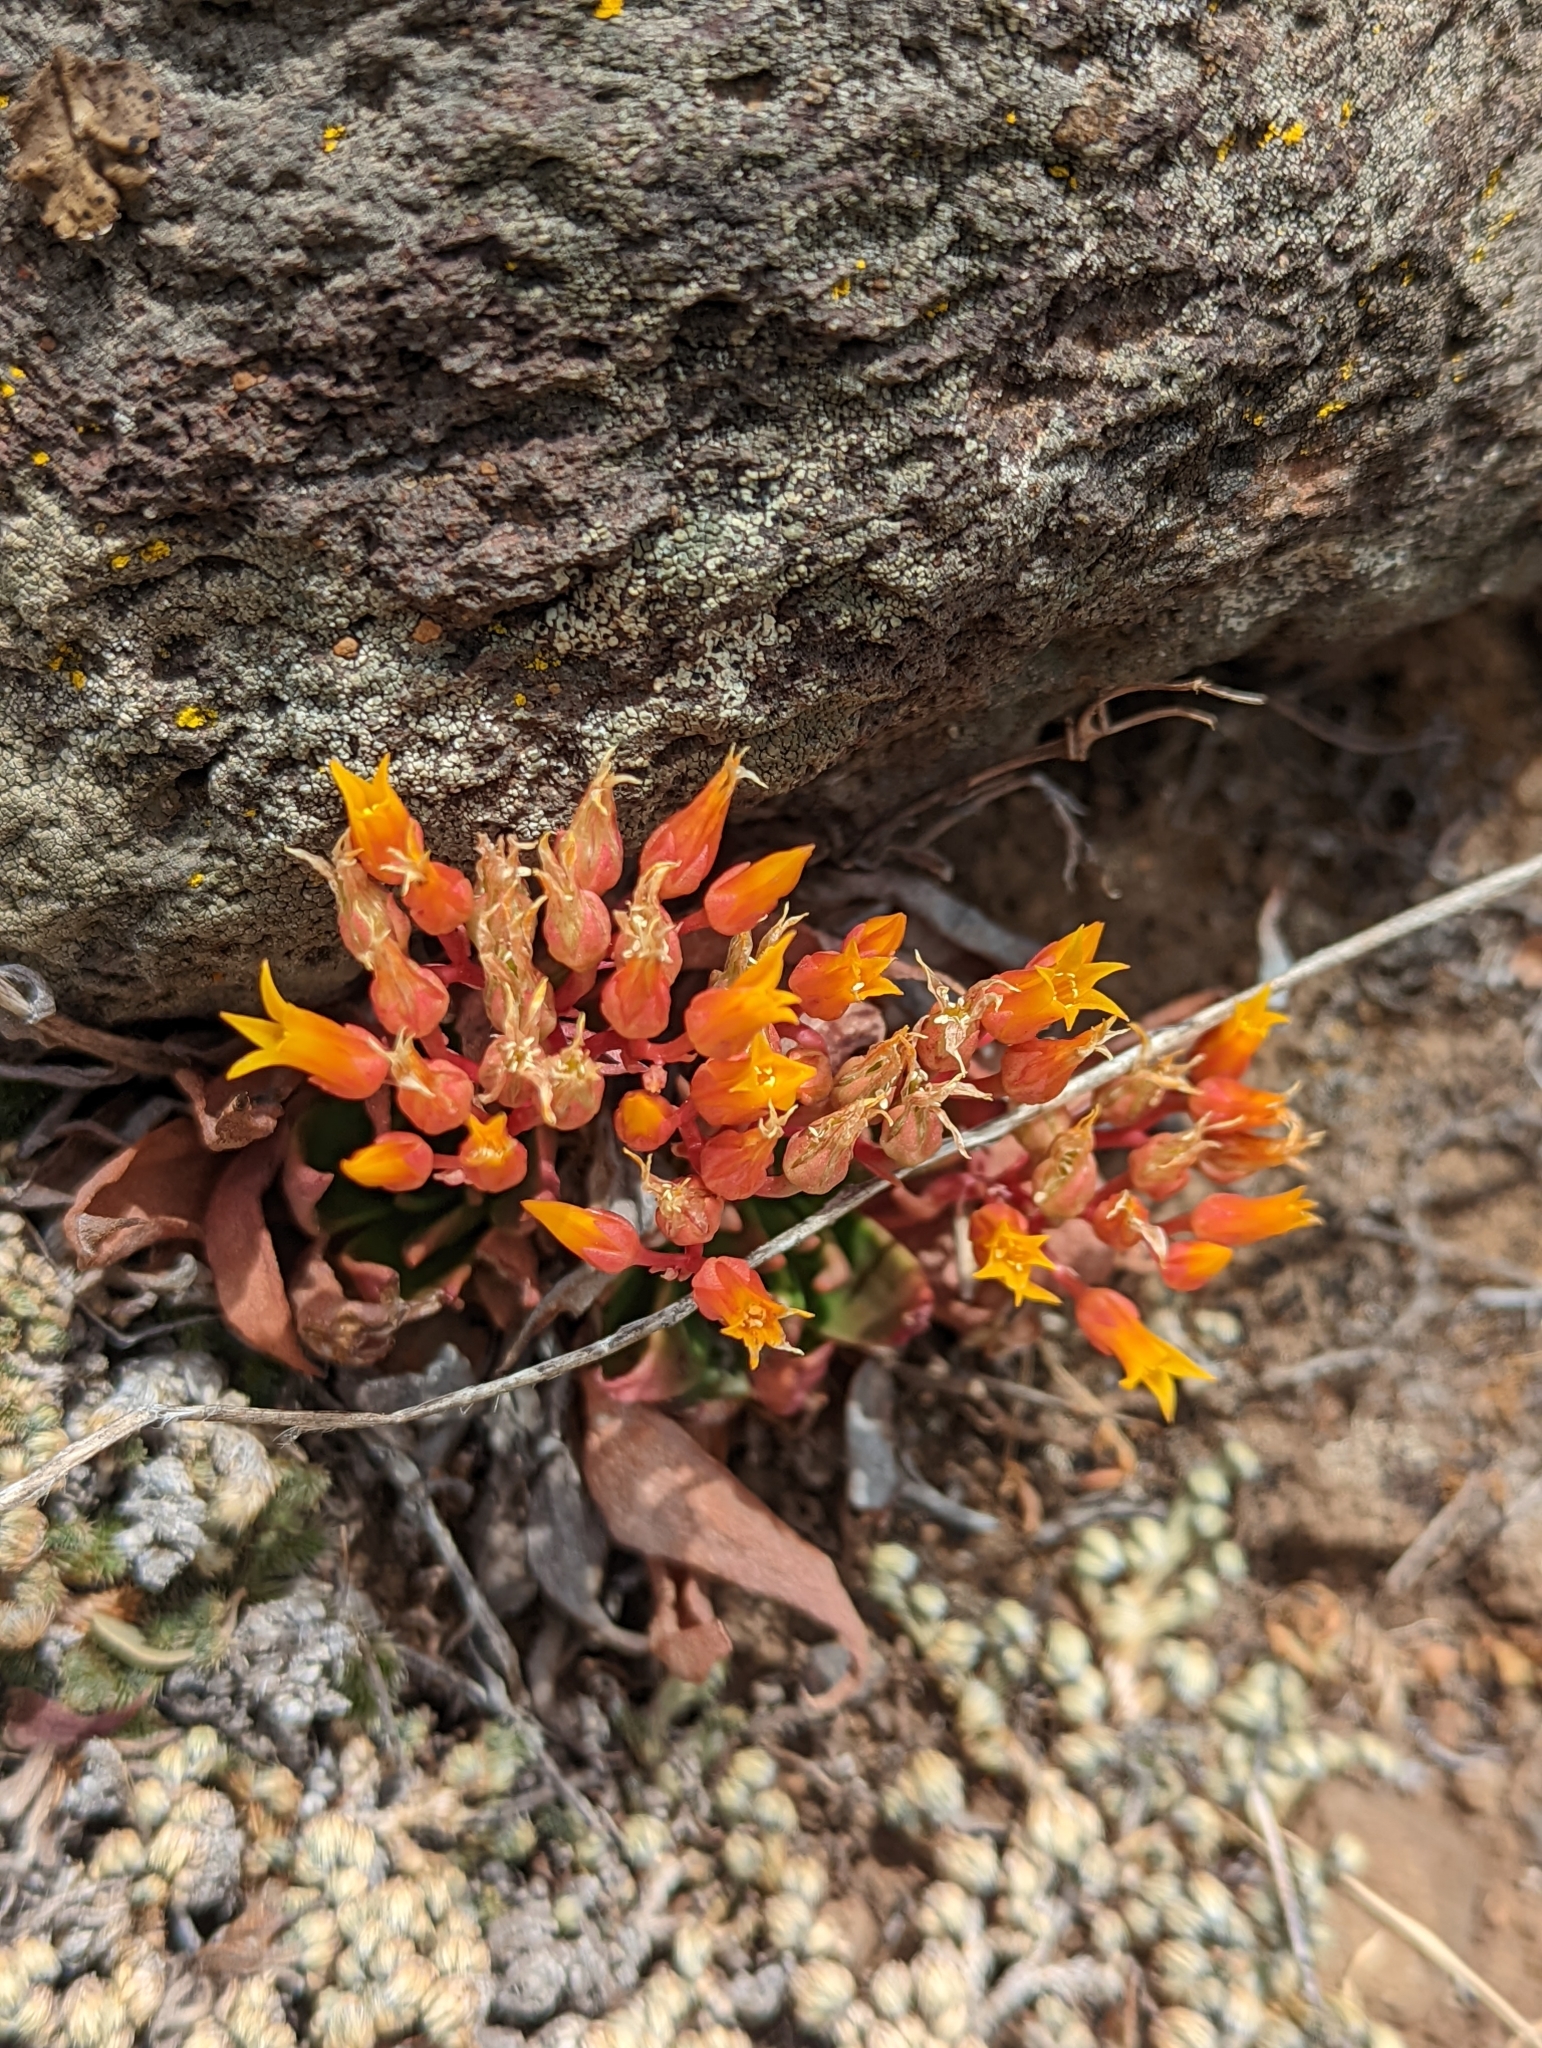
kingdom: Plantae
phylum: Tracheophyta
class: Magnoliopsida
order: Saxifragales
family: Crassulaceae
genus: Dudleya
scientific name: Dudleya cymosa
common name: Canyon dudleya
